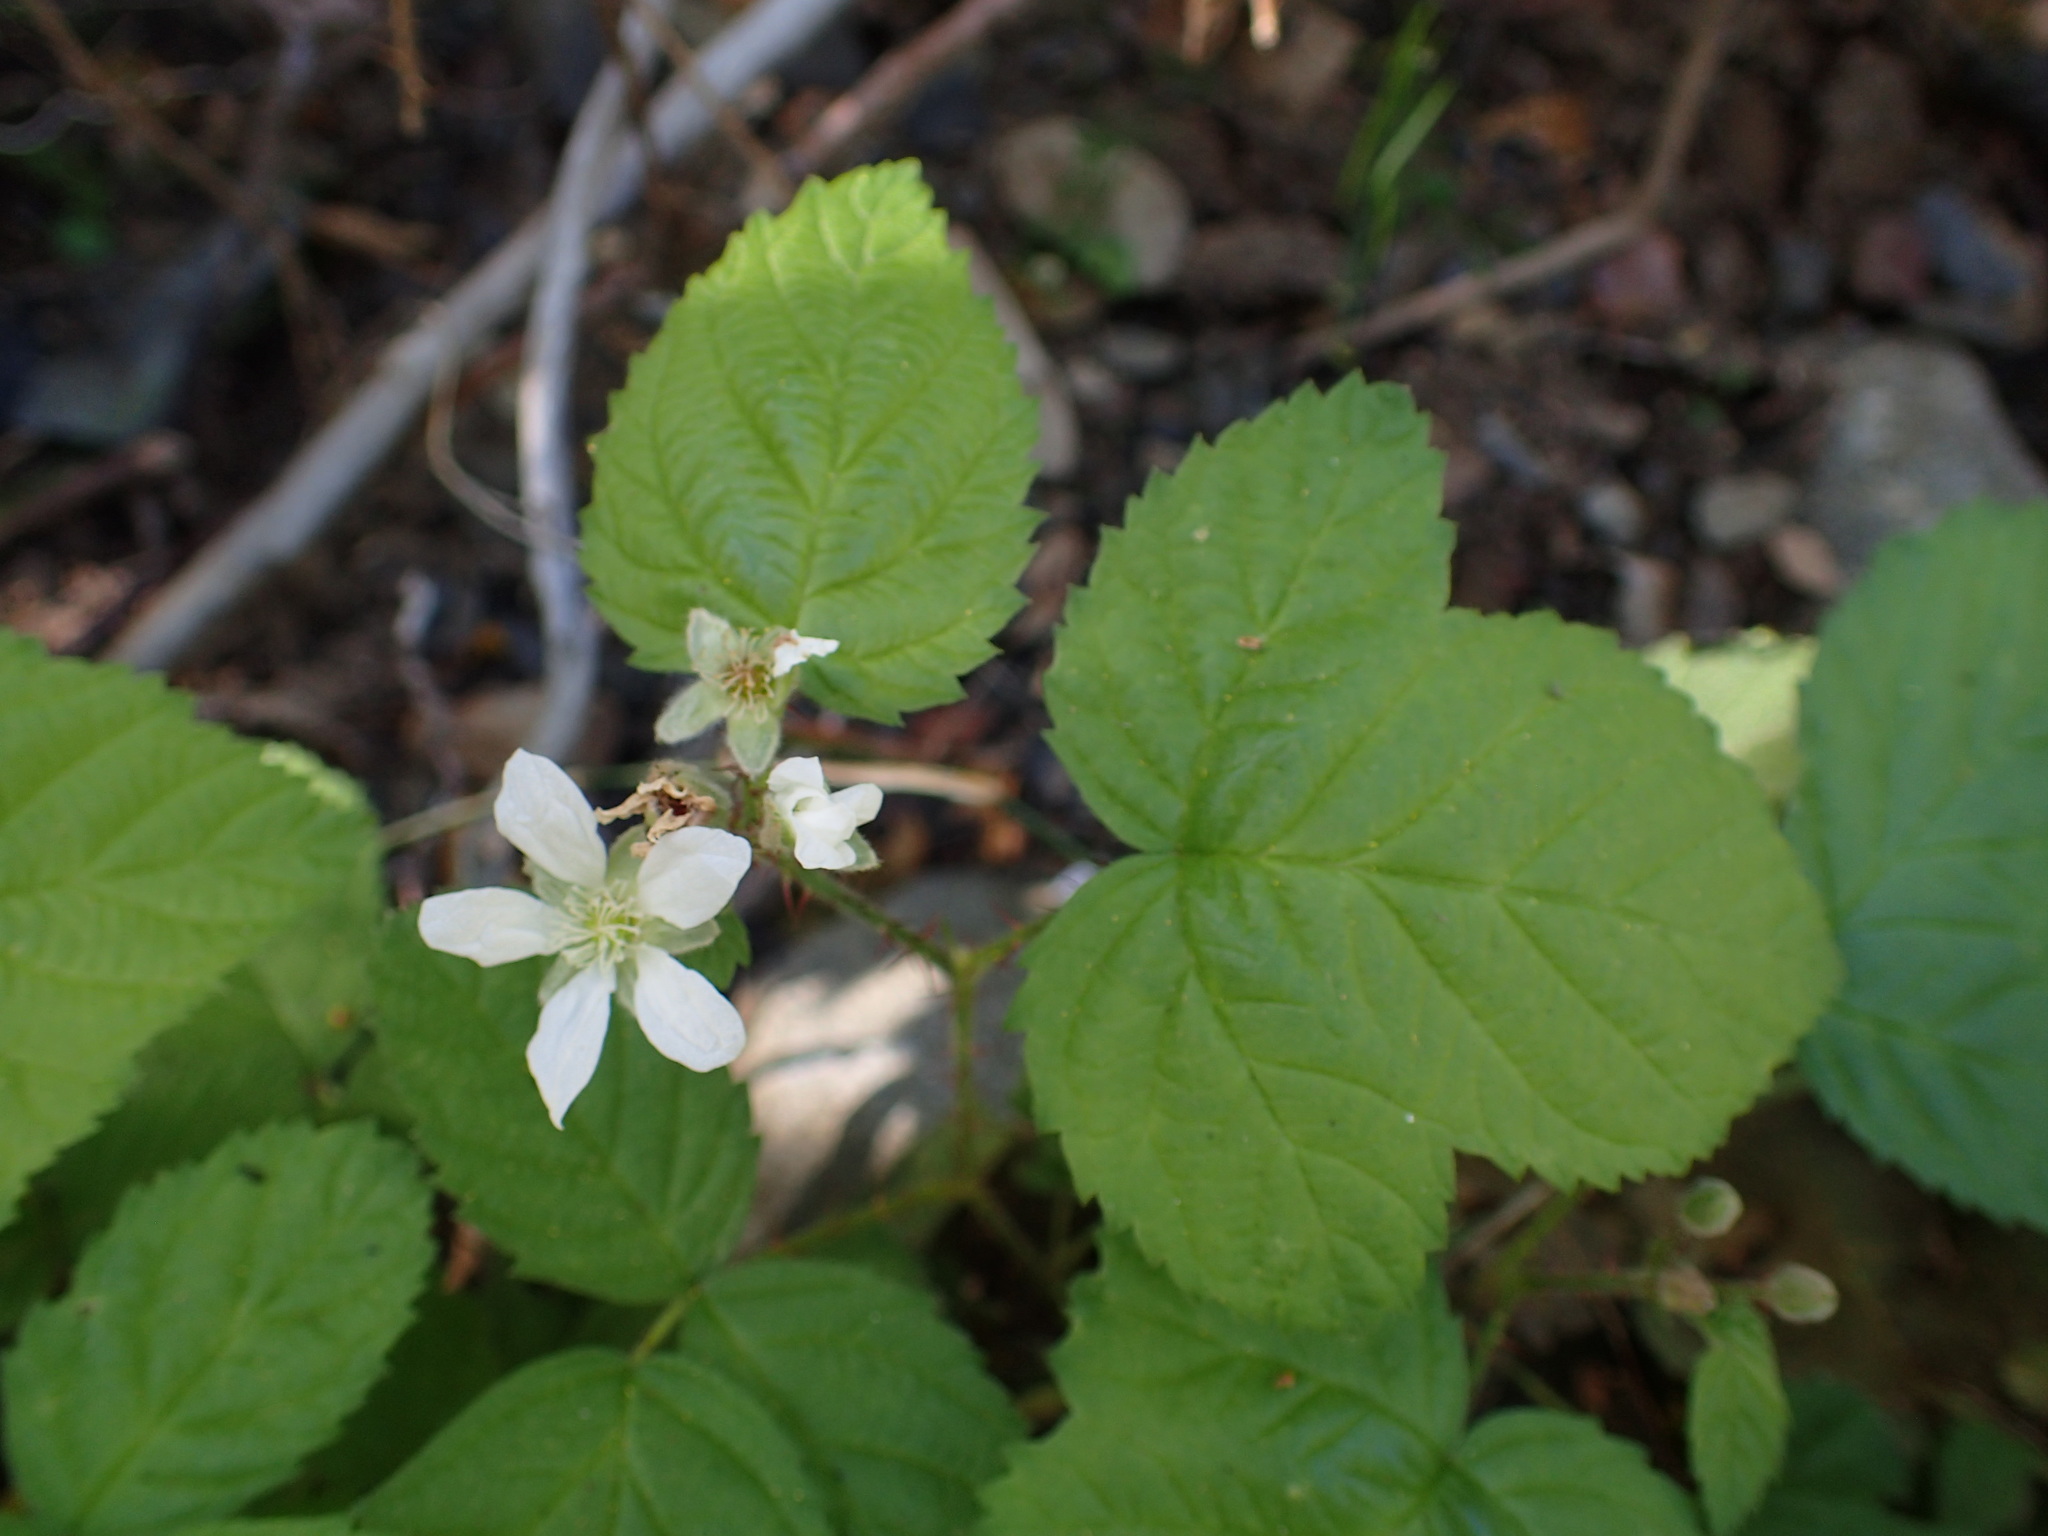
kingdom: Plantae
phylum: Tracheophyta
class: Magnoliopsida
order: Rosales
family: Rosaceae
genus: Rubus
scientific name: Rubus ursinus
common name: Pacific blackberry
